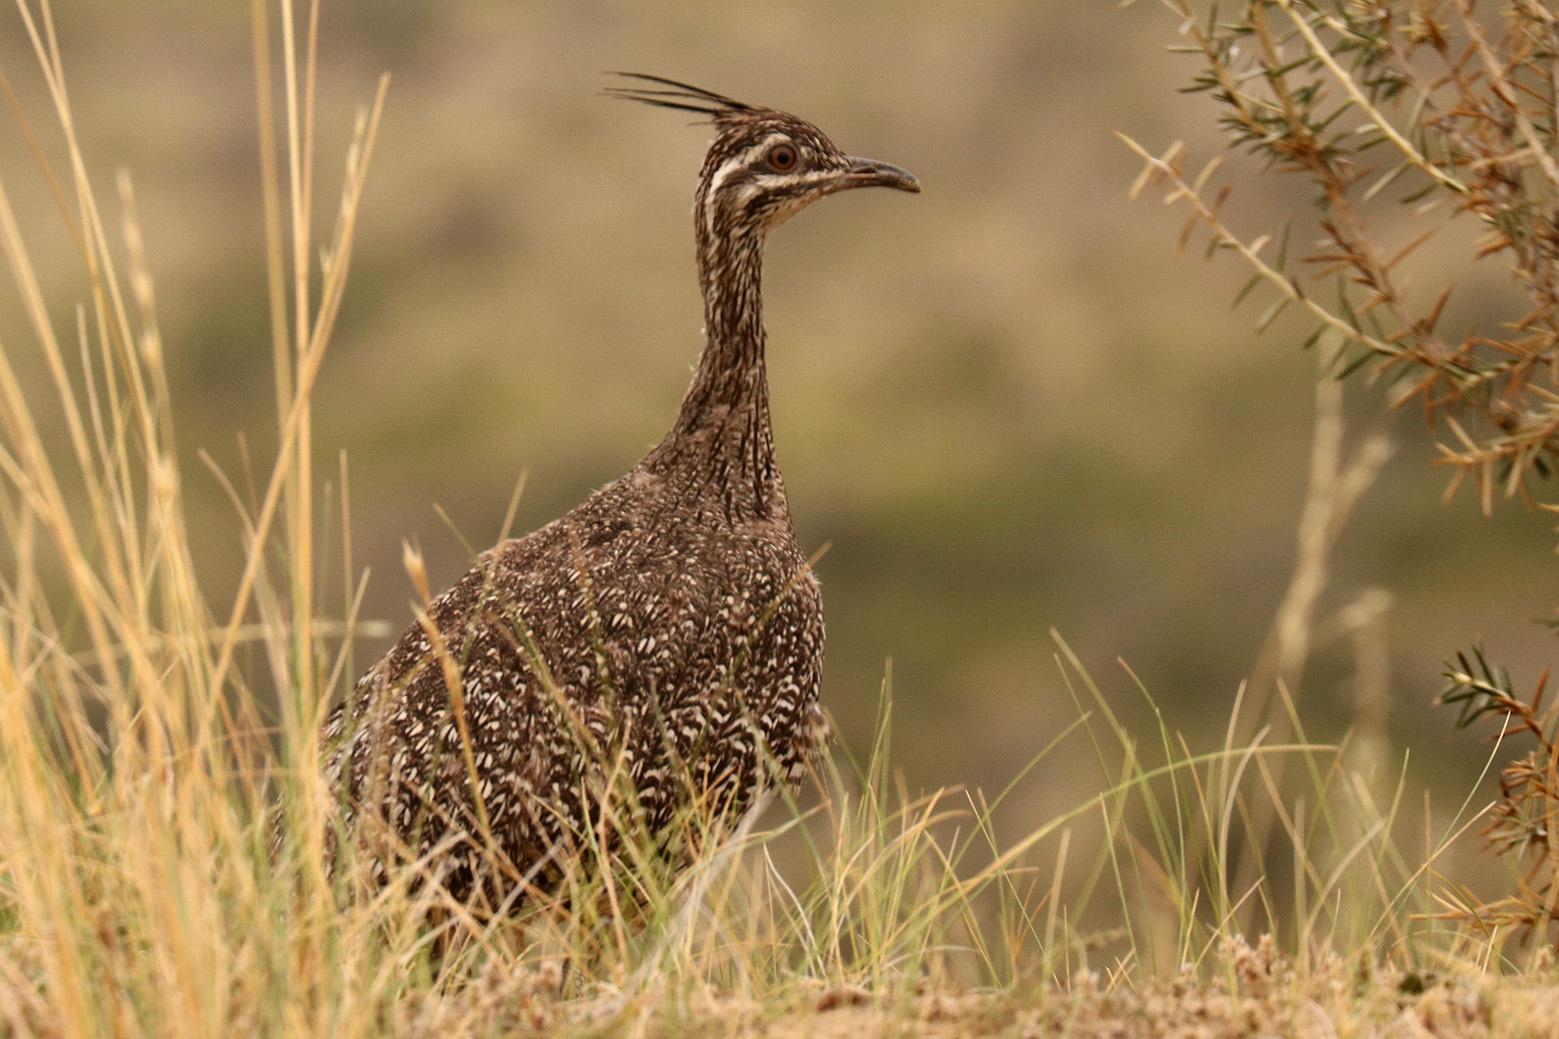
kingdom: Animalia
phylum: Chordata
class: Aves
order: Tinamiformes
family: Tinamidae
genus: Eudromia
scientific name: Eudromia elegans
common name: Elegant crested tinamou
